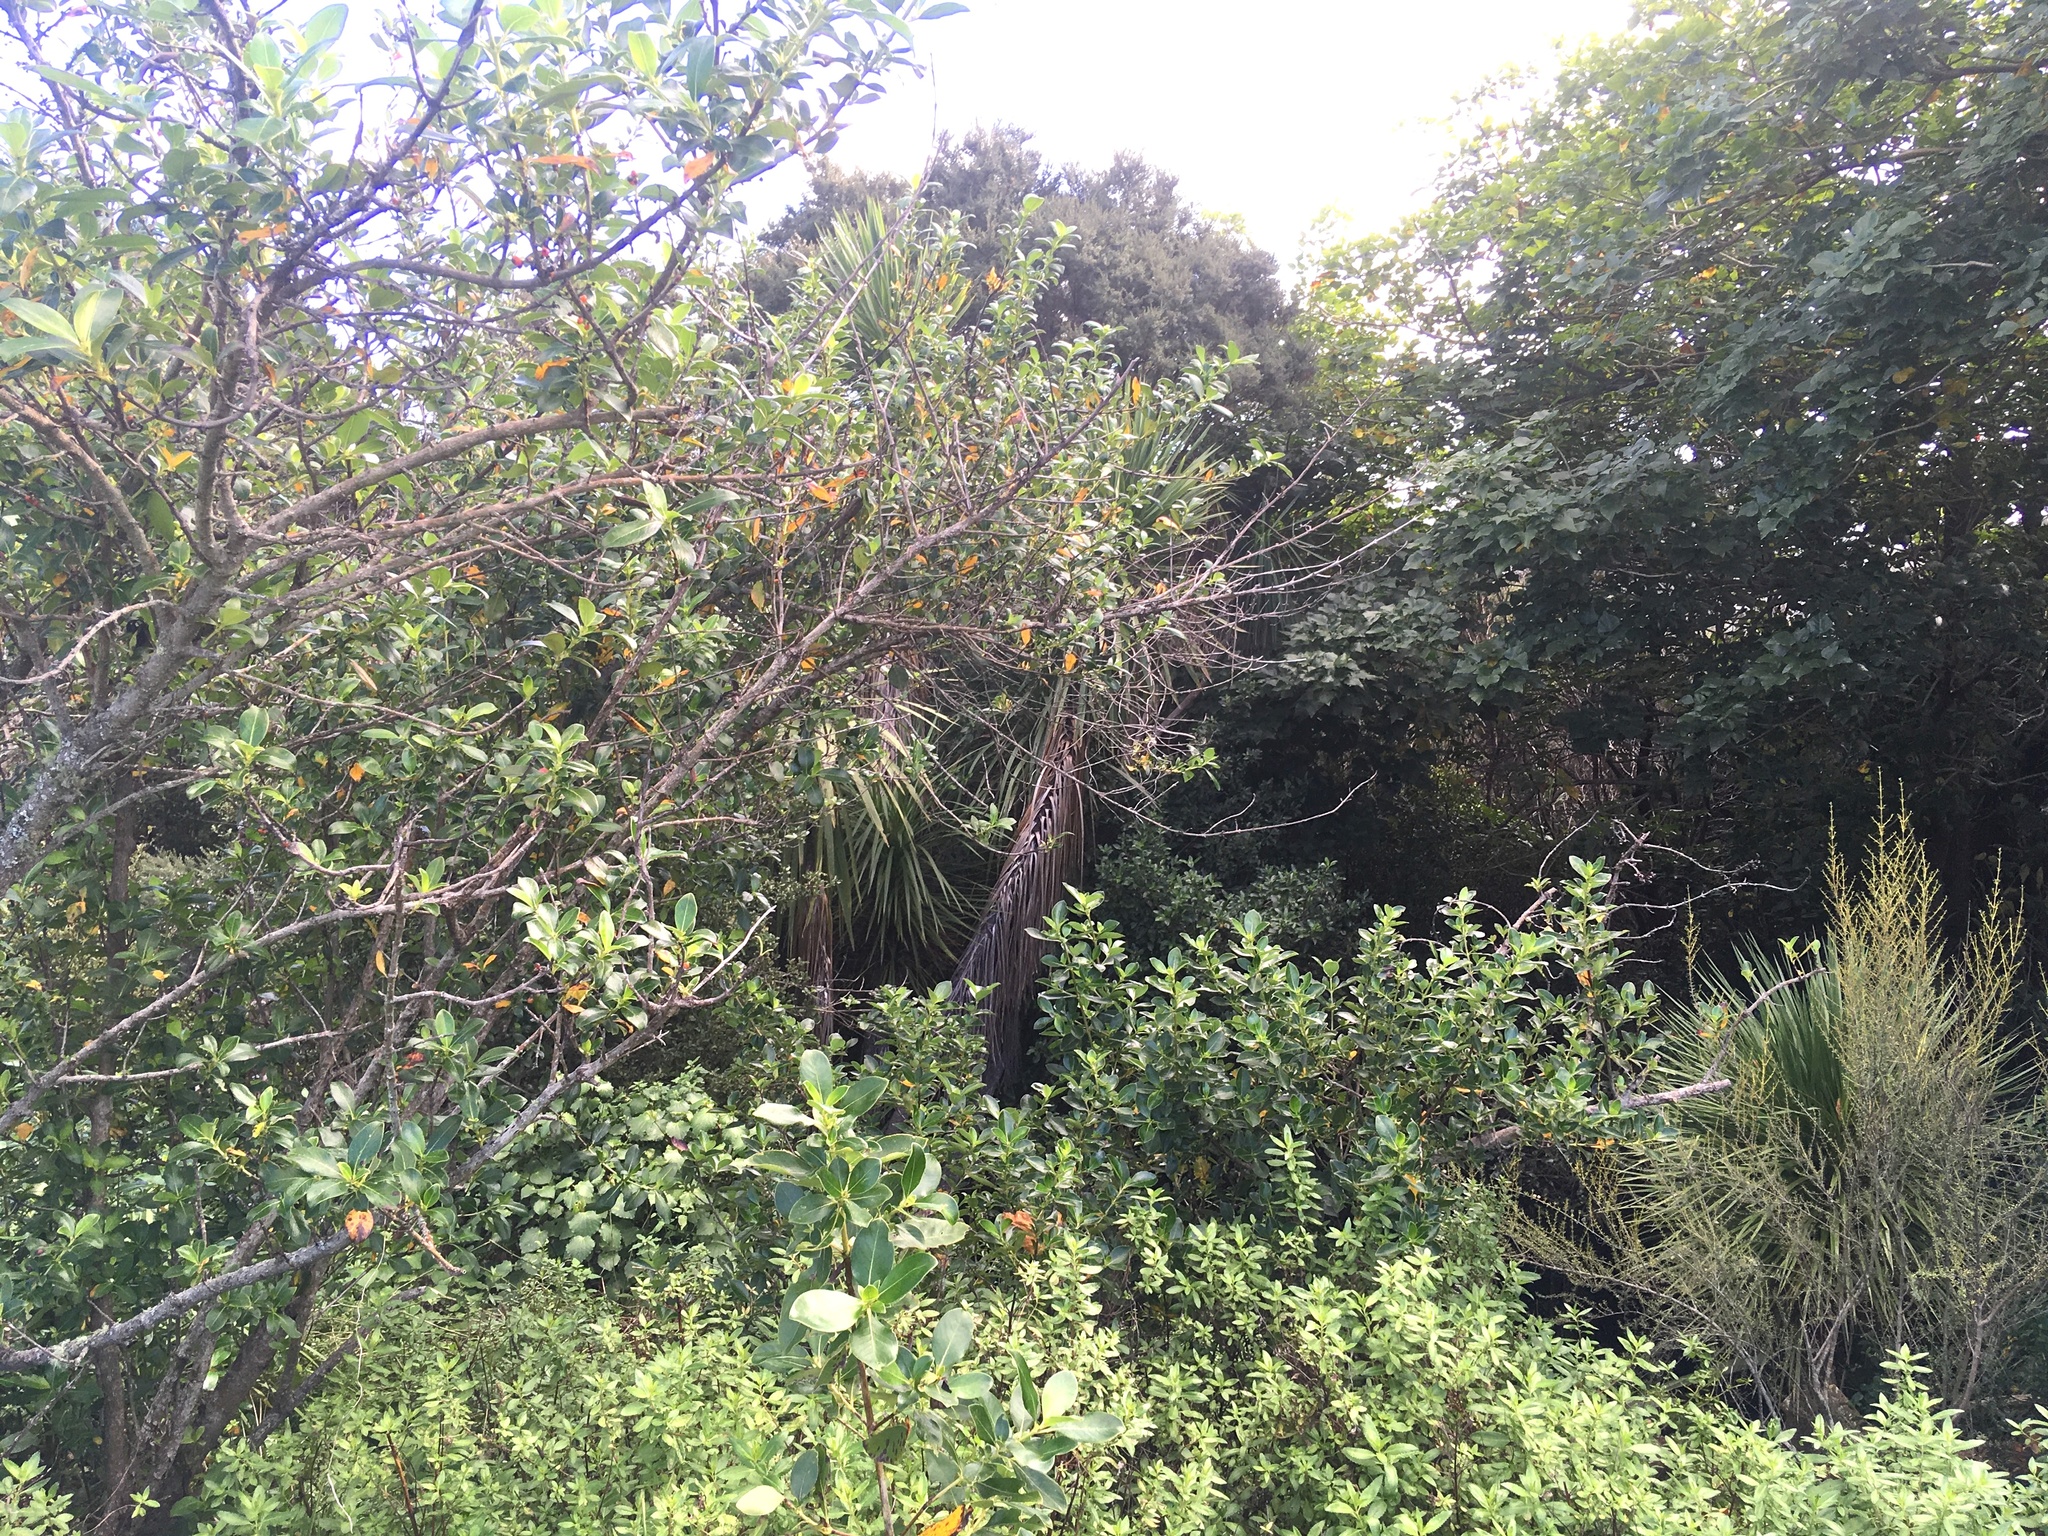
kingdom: Plantae
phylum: Tracheophyta
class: Magnoliopsida
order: Piperales
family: Piperaceae
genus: Macropiper
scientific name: Macropiper excelsum
